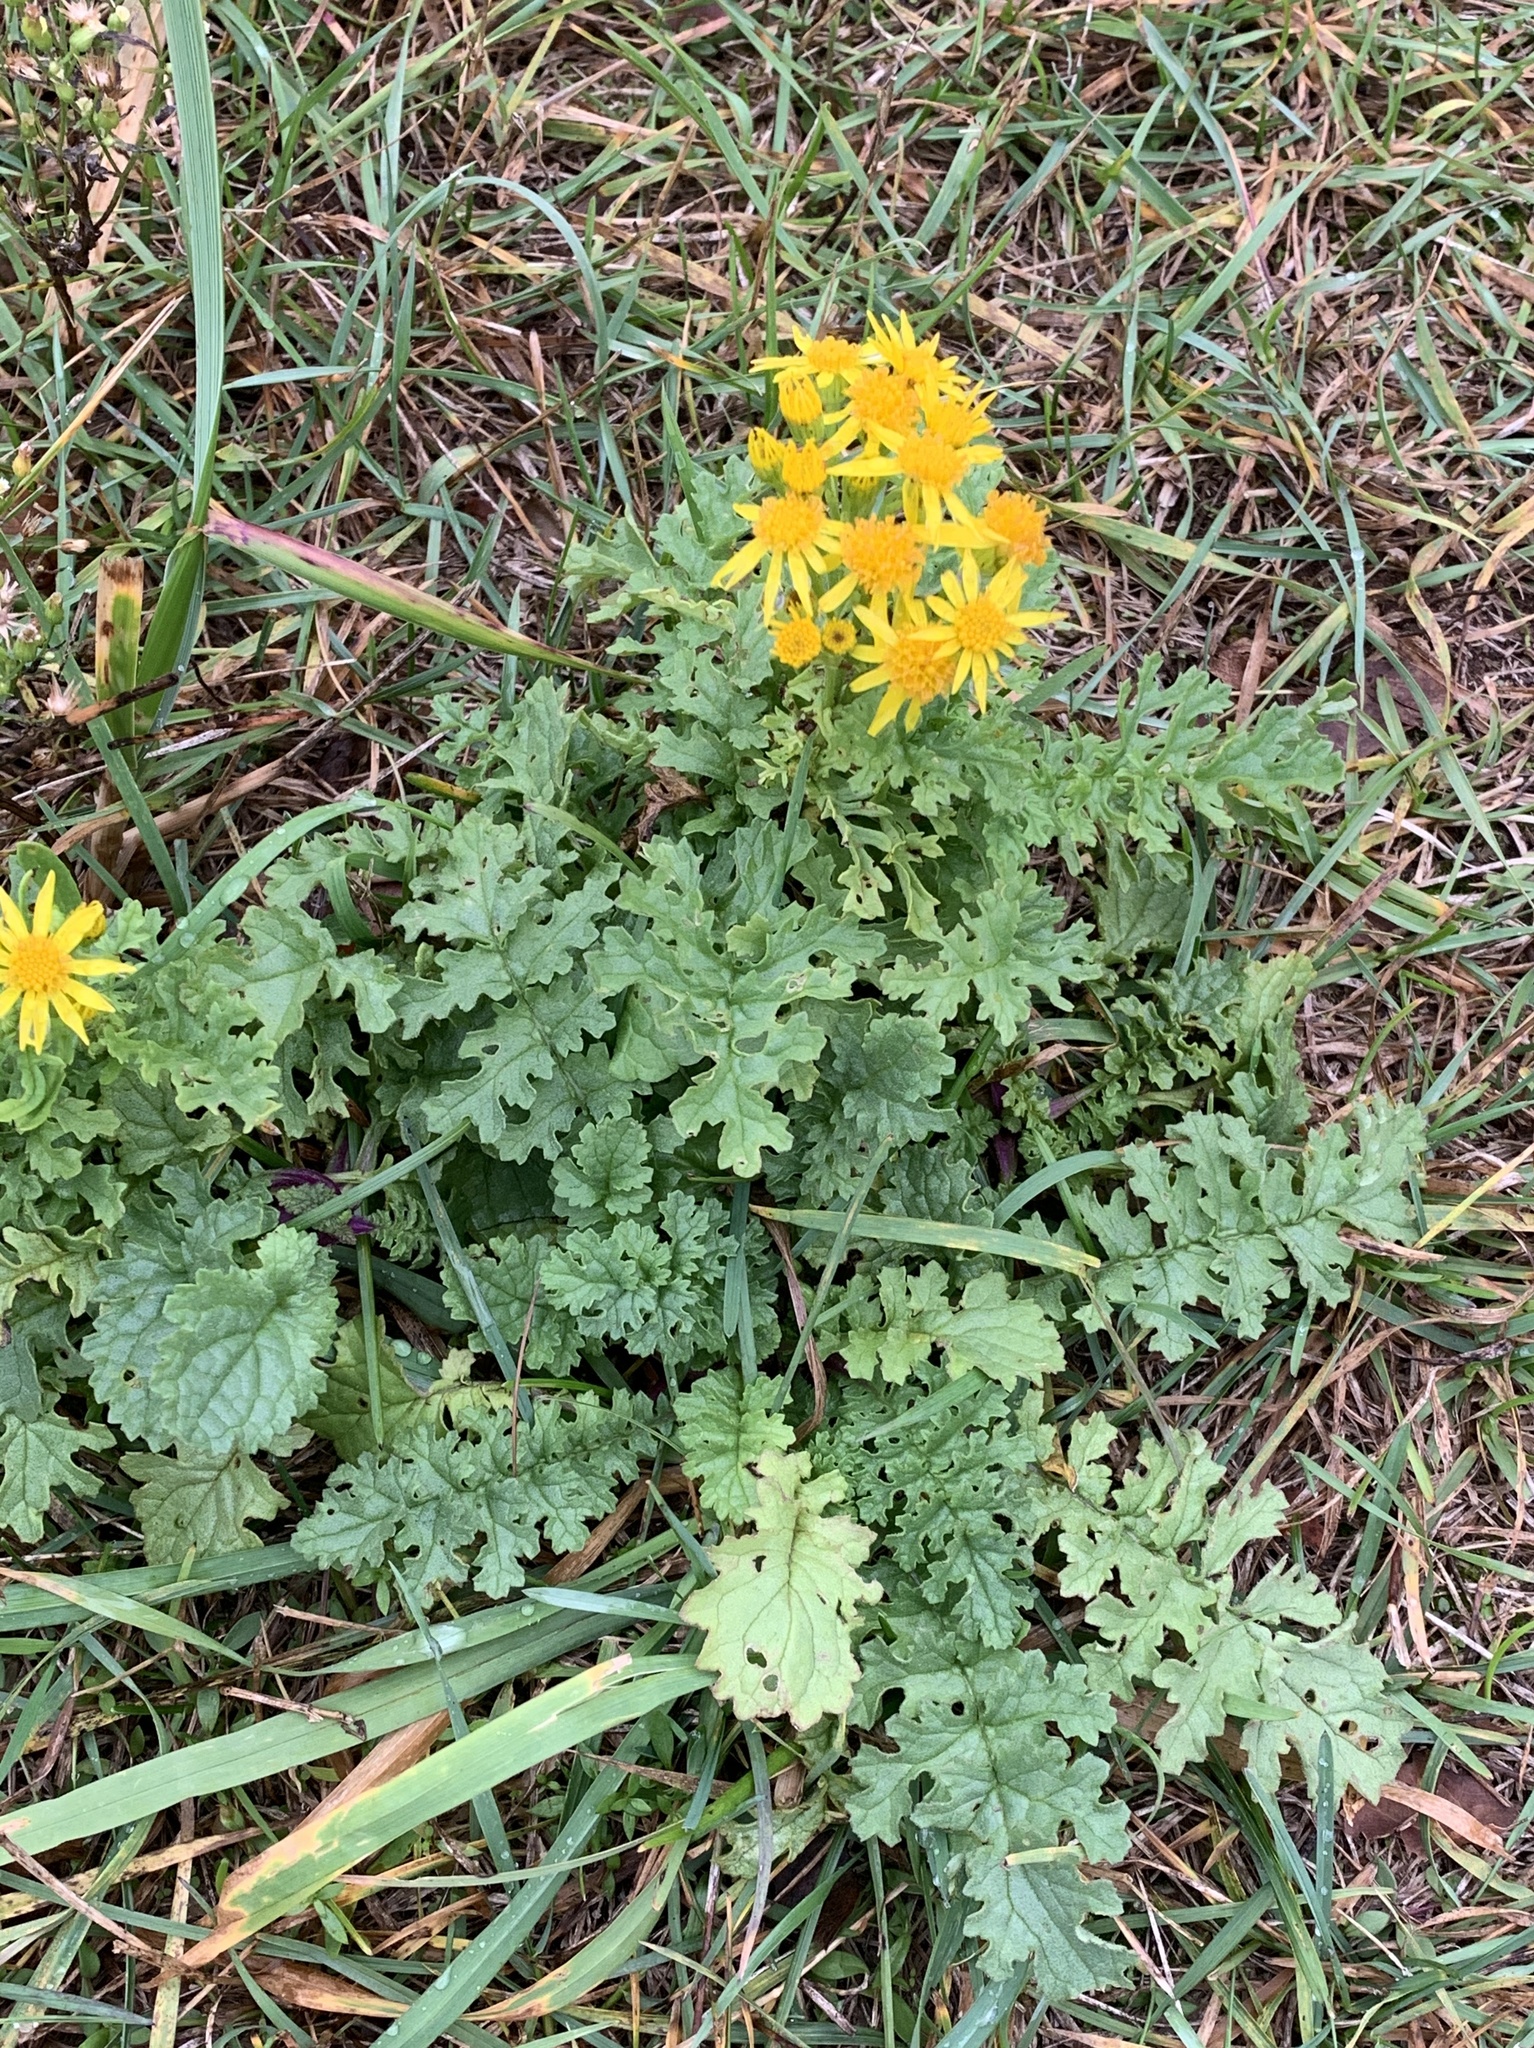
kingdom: Plantae
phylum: Tracheophyta
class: Magnoliopsida
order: Asterales
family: Asteraceae
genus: Jacobaea
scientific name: Jacobaea vulgaris
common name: Stinking willie
